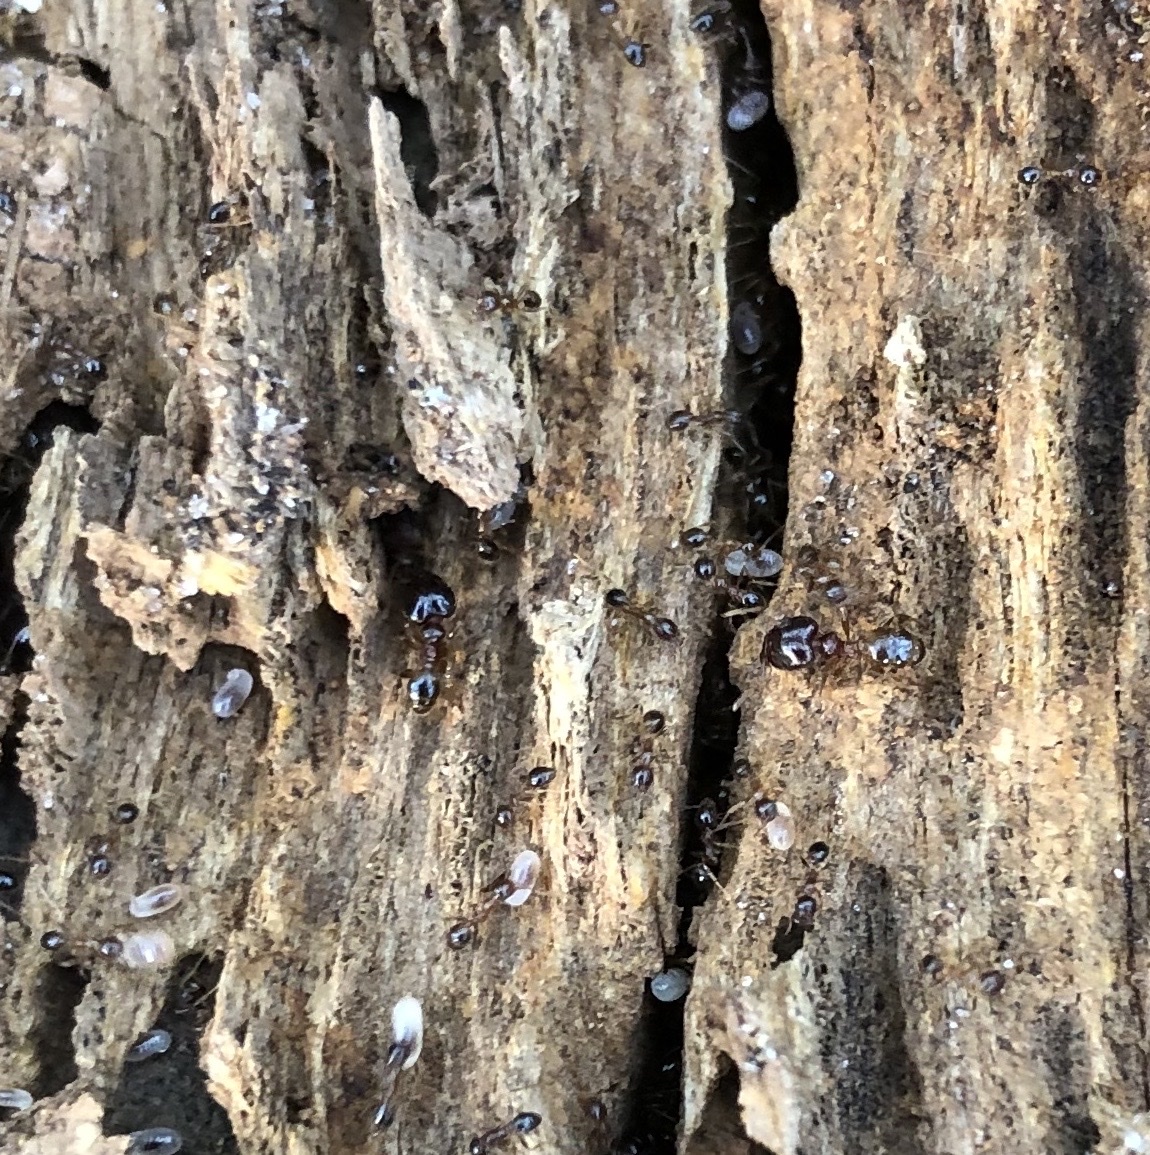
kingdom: Animalia
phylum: Arthropoda
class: Insecta
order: Hymenoptera
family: Formicidae
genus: Pheidole
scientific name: Pheidole megacephala
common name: Bigheaded ant
